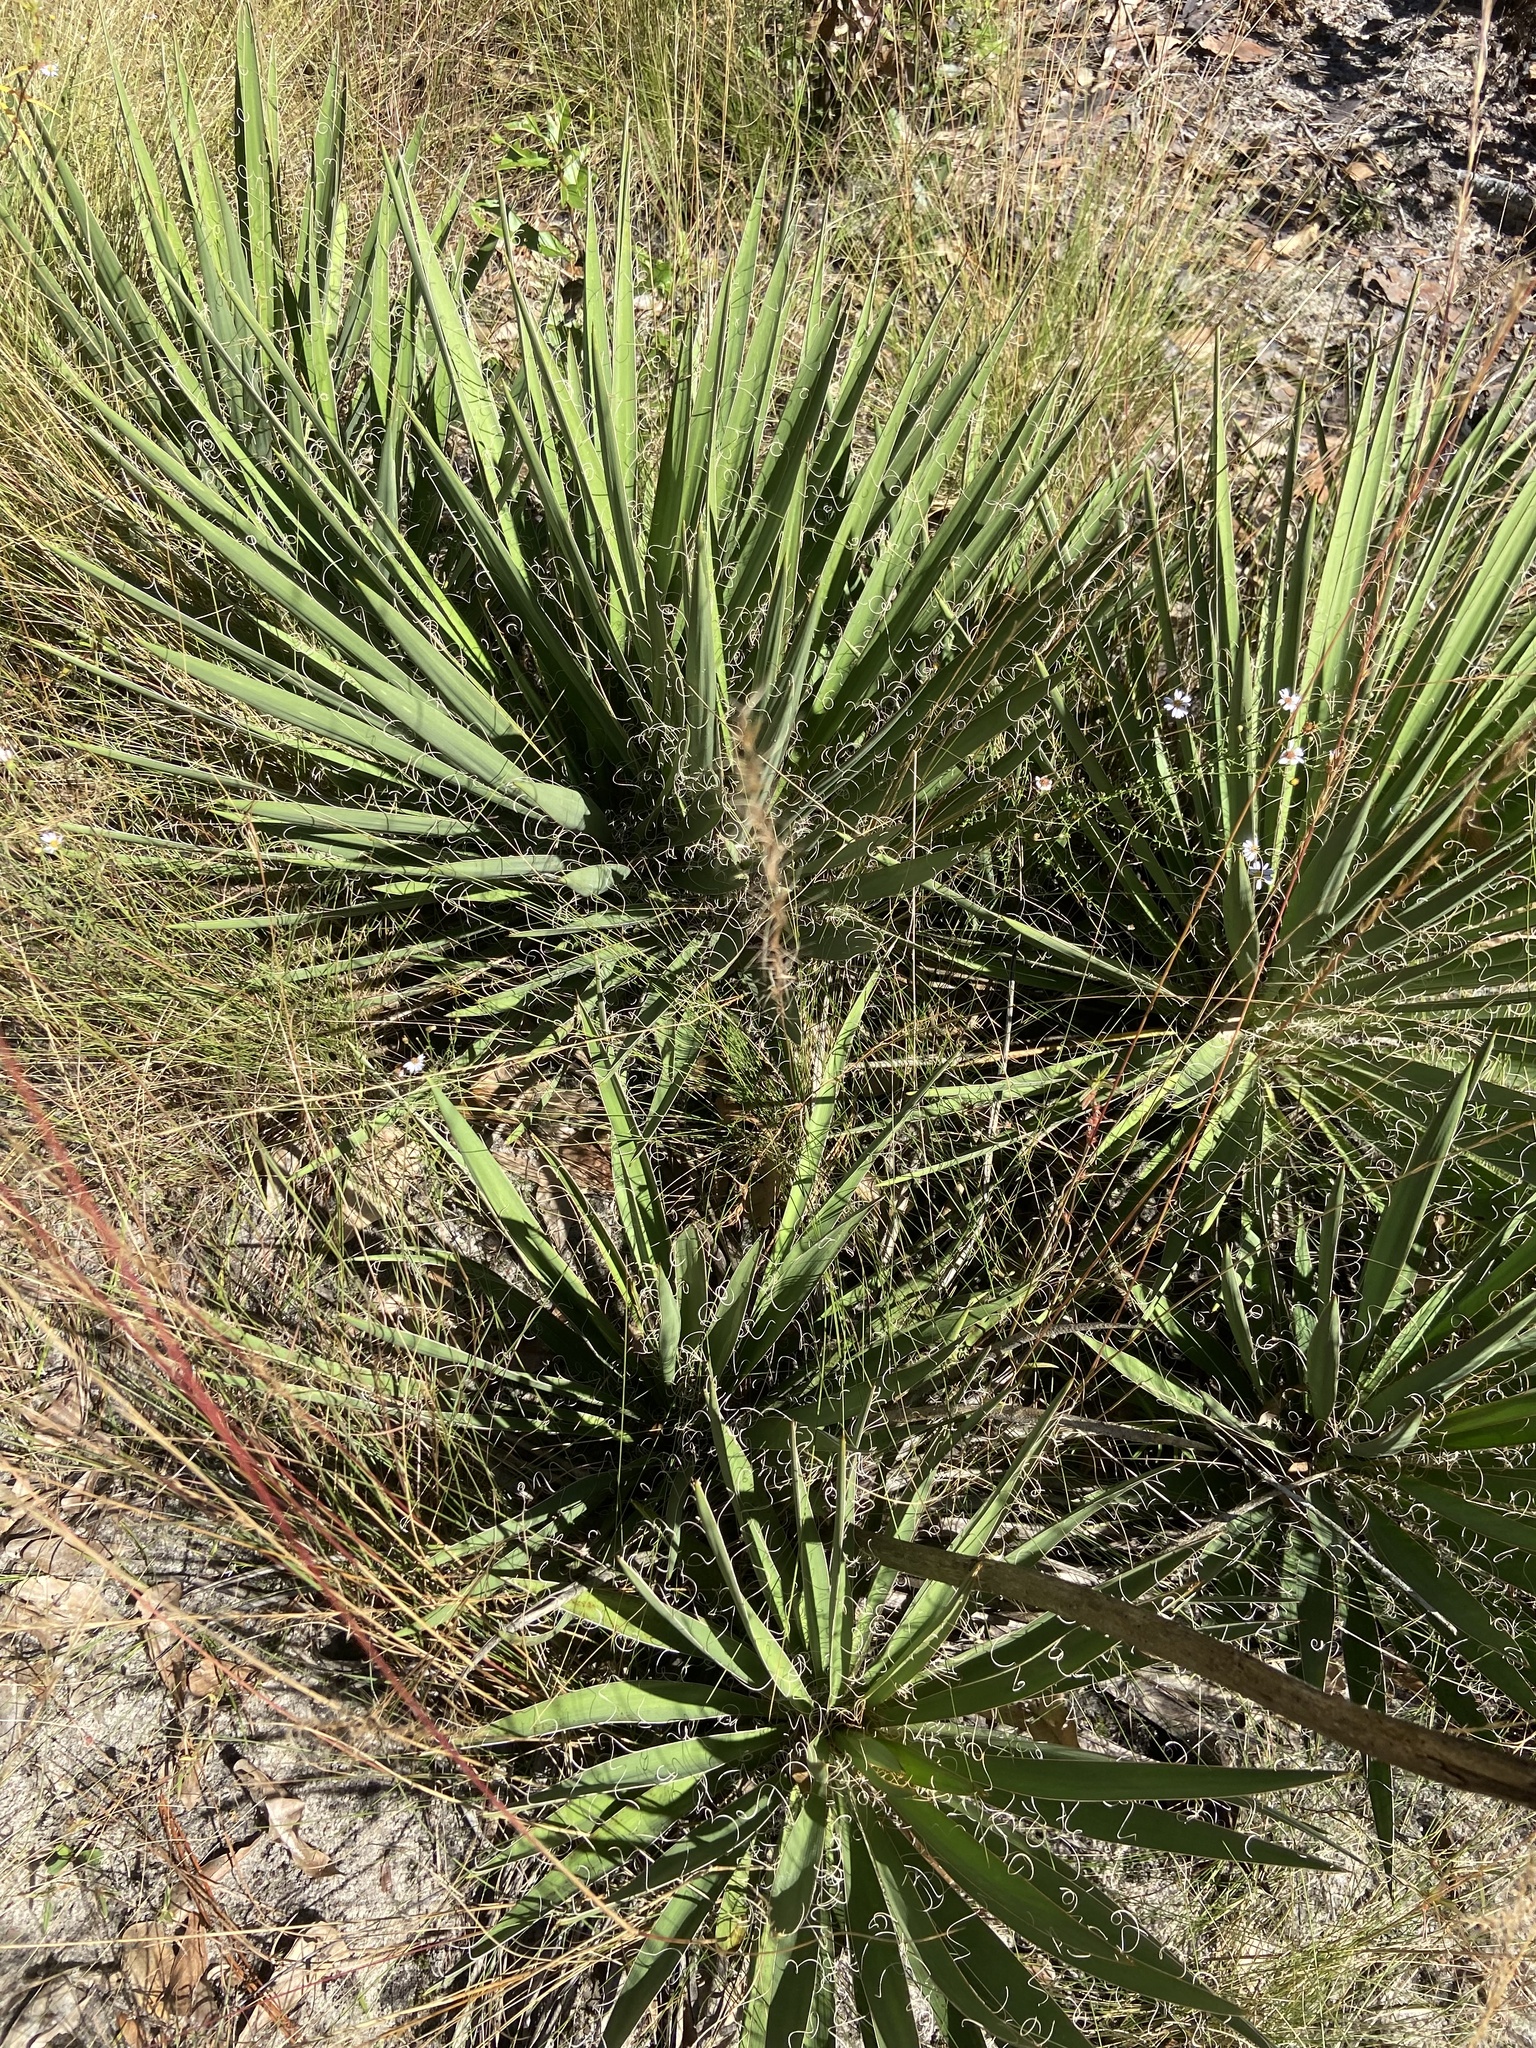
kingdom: Plantae
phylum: Tracheophyta
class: Liliopsida
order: Asparagales
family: Asparagaceae
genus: Yucca
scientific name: Yucca filamentosa
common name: Adam's-needle
